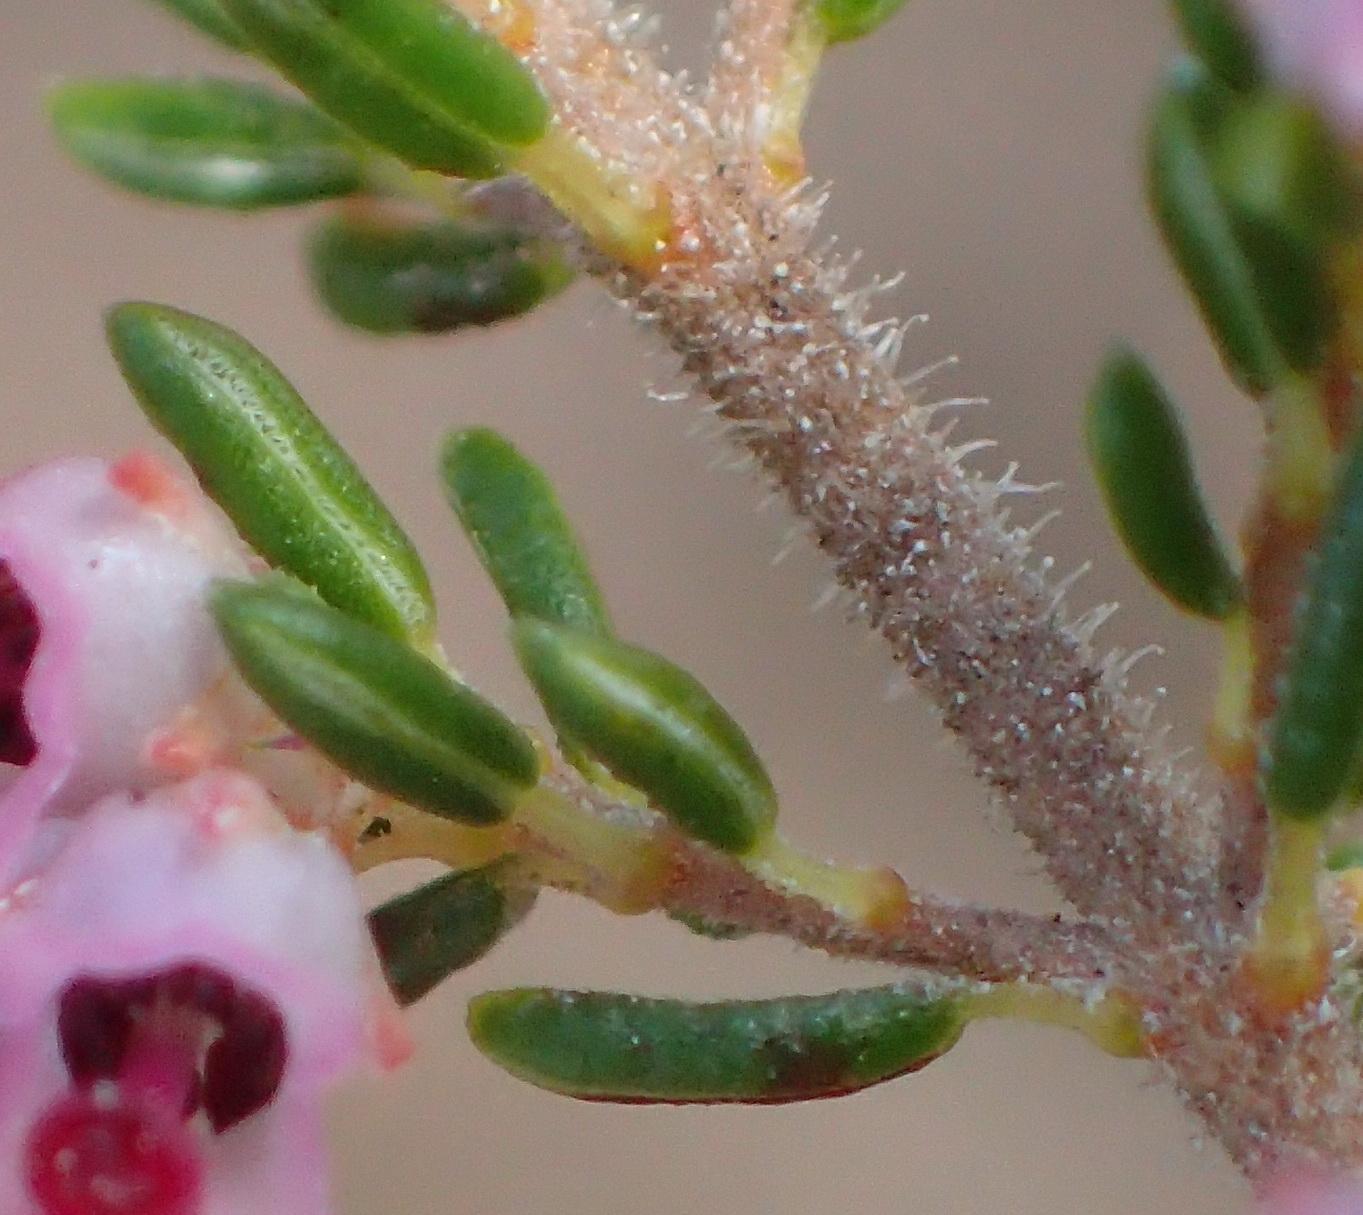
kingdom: Plantae
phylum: Tracheophyta
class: Magnoliopsida
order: Ericales
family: Ericaceae
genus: Erica
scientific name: Erica peltata
